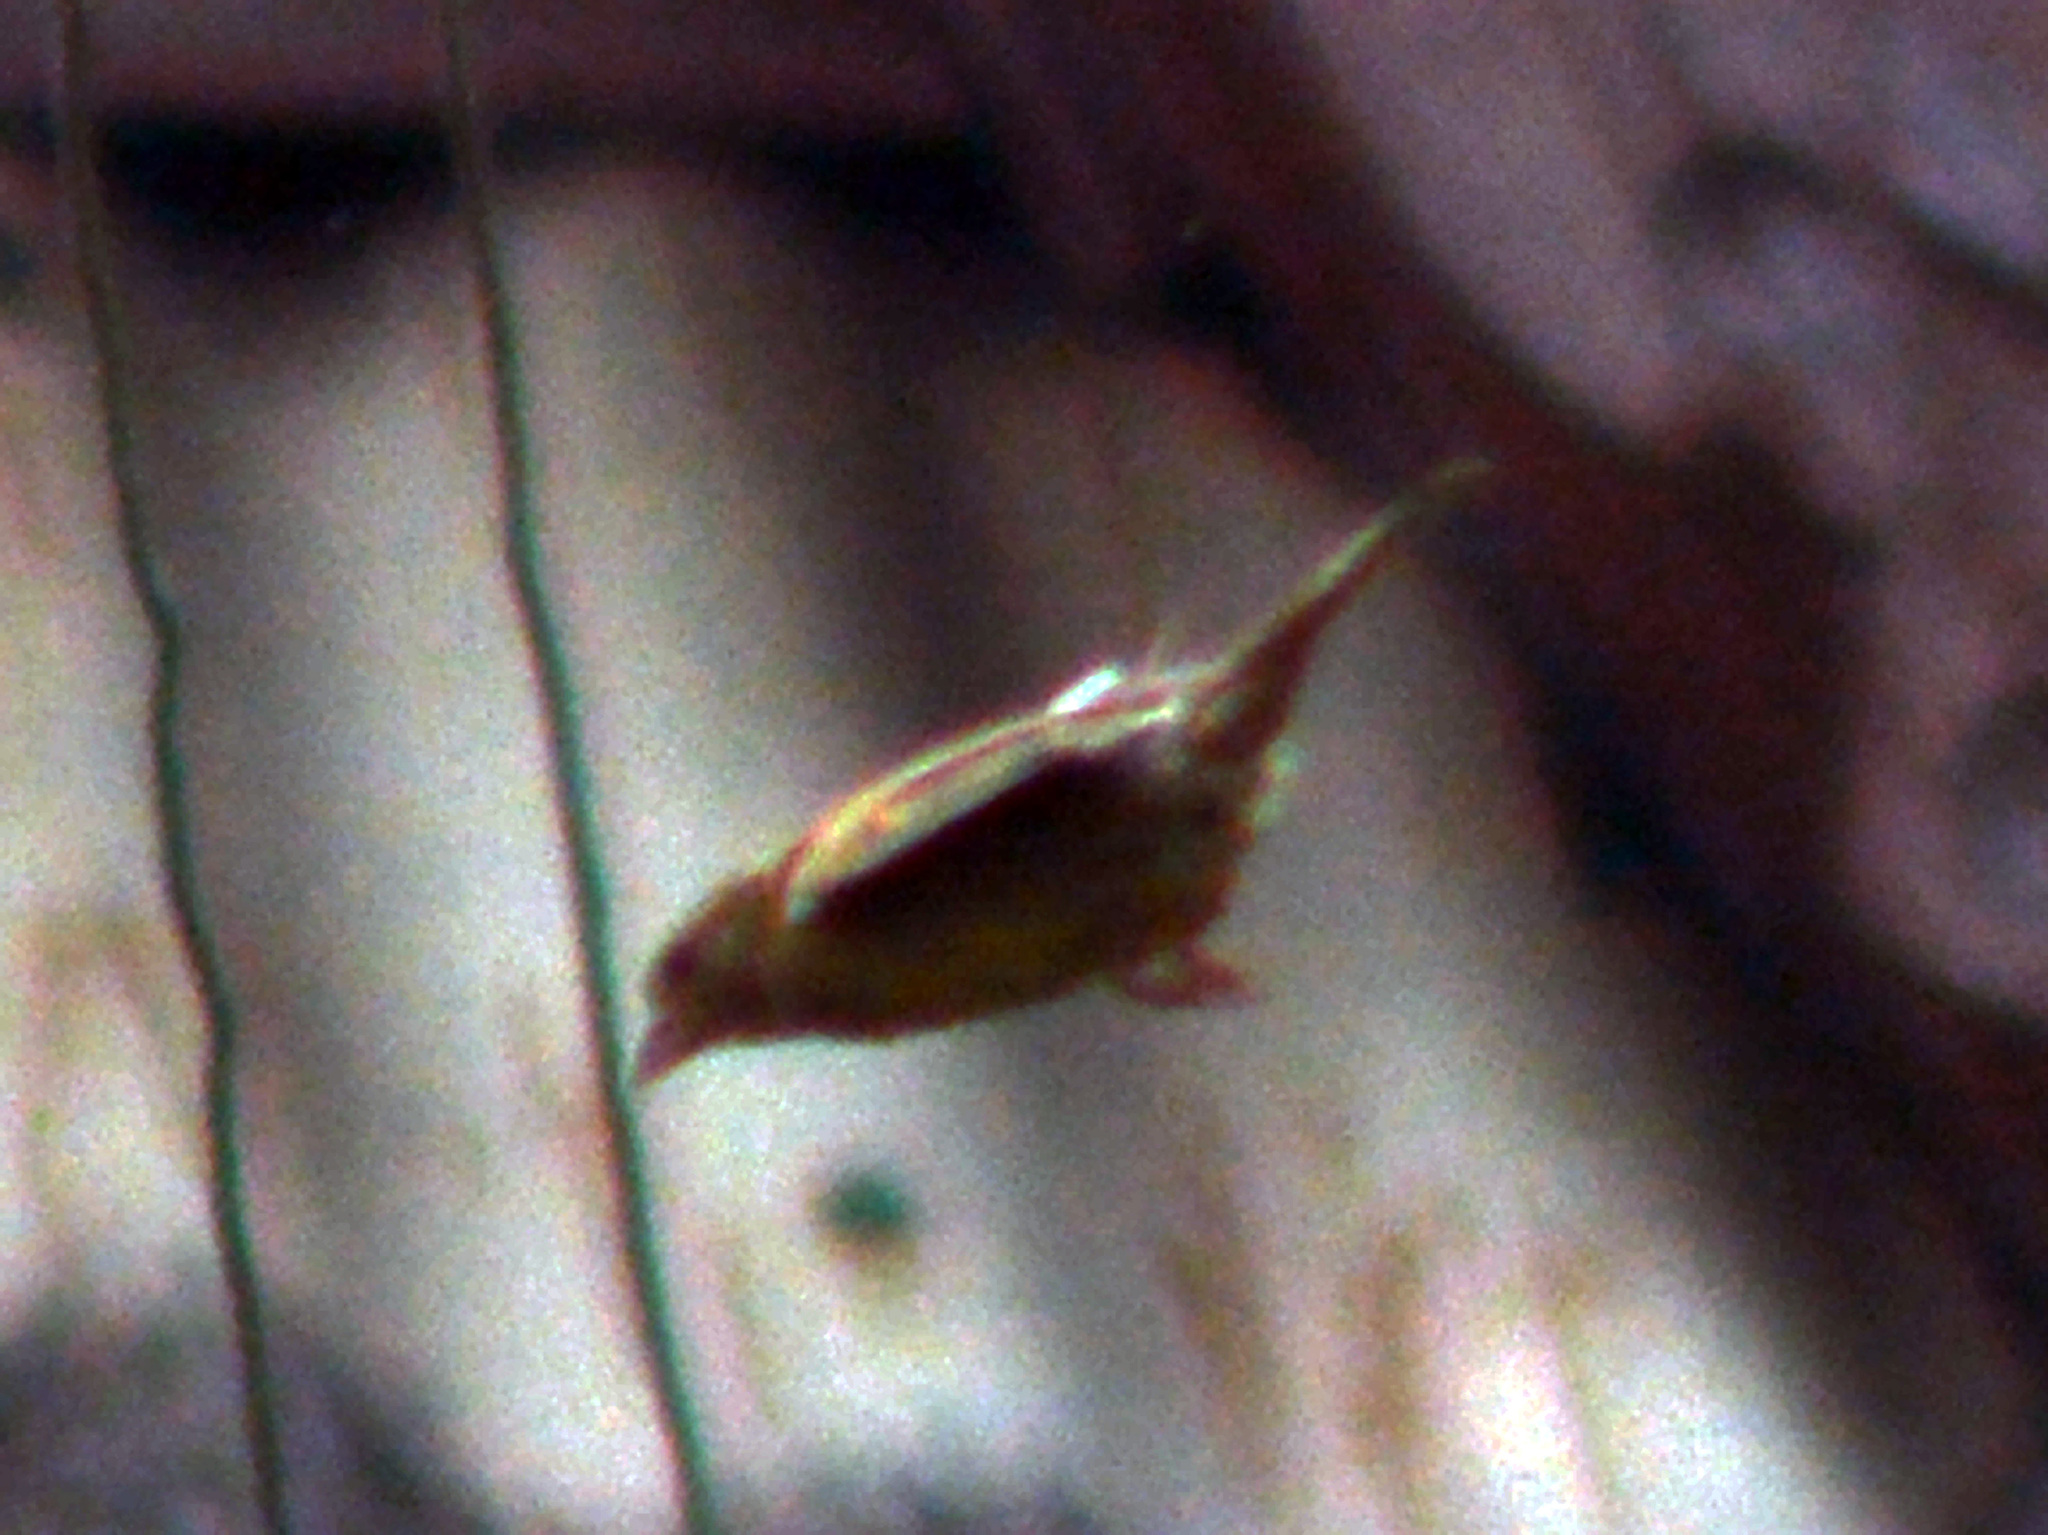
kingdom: Plantae
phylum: Tracheophyta
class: Liliopsida
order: Poales
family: Poaceae
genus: Chloris
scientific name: Chloris chloris
